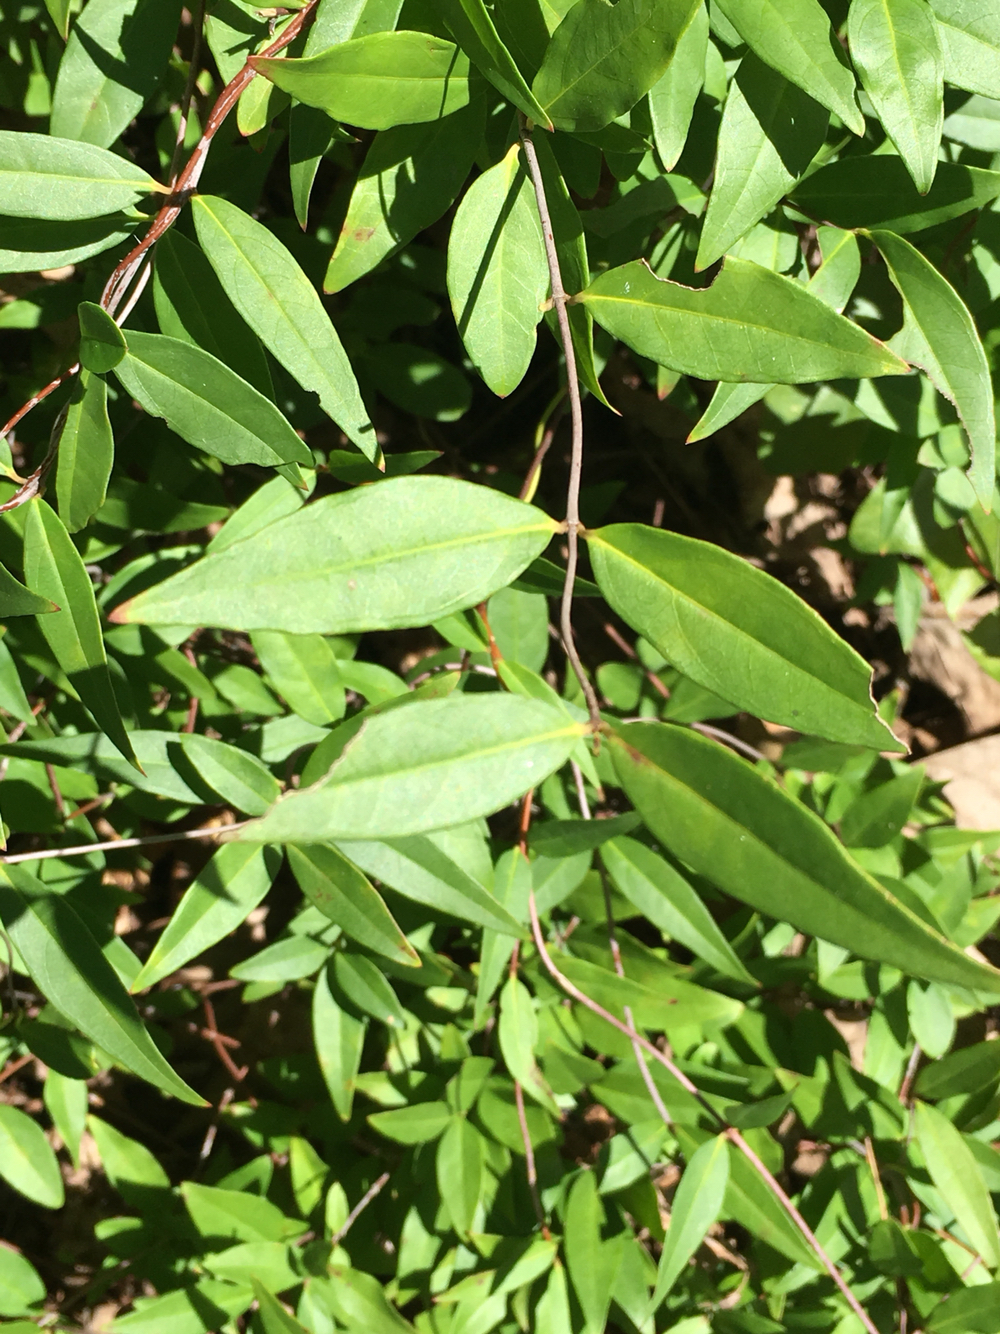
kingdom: Plantae
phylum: Tracheophyta
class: Magnoliopsida
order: Gentianales
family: Gelsemiaceae
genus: Gelsemium
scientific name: Gelsemium sempervirens
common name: Carolina-jasmine
